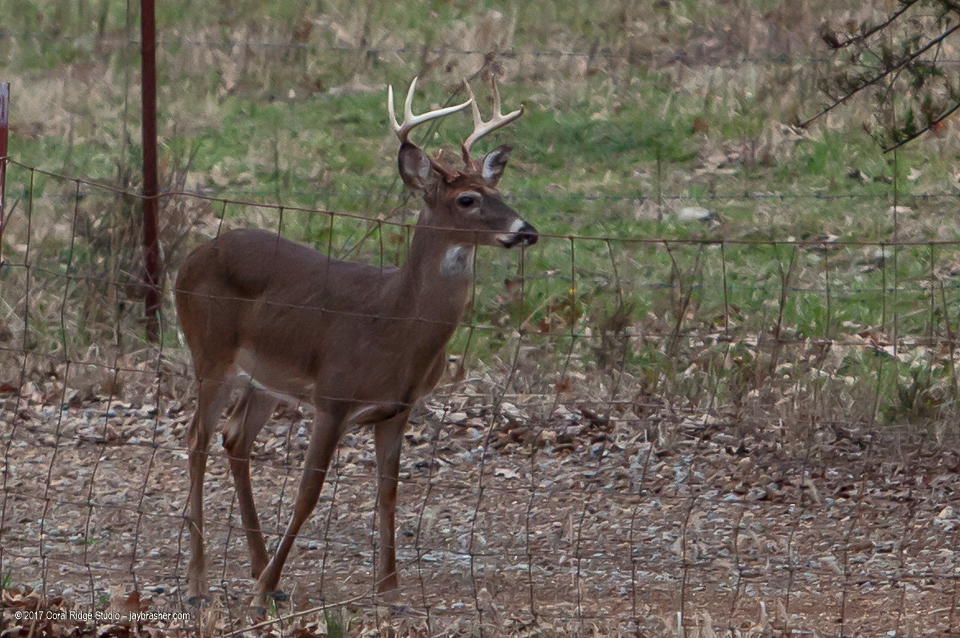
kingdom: Animalia
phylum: Chordata
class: Mammalia
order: Artiodactyla
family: Cervidae
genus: Odocoileus
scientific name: Odocoileus virginianus
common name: White-tailed deer
